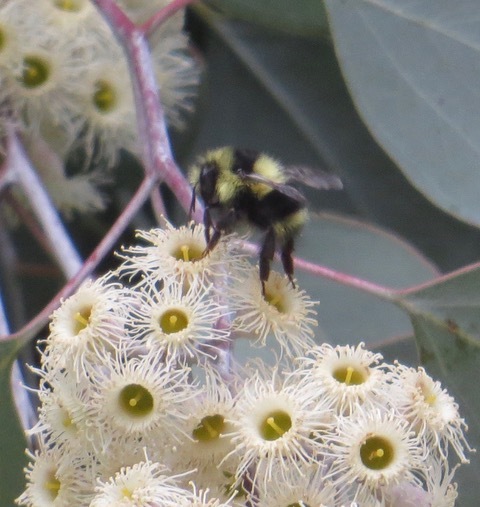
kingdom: Animalia
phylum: Arthropoda
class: Insecta
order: Hymenoptera
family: Apidae
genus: Bombus
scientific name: Bombus melanopygus
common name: Black tail bumble bee
